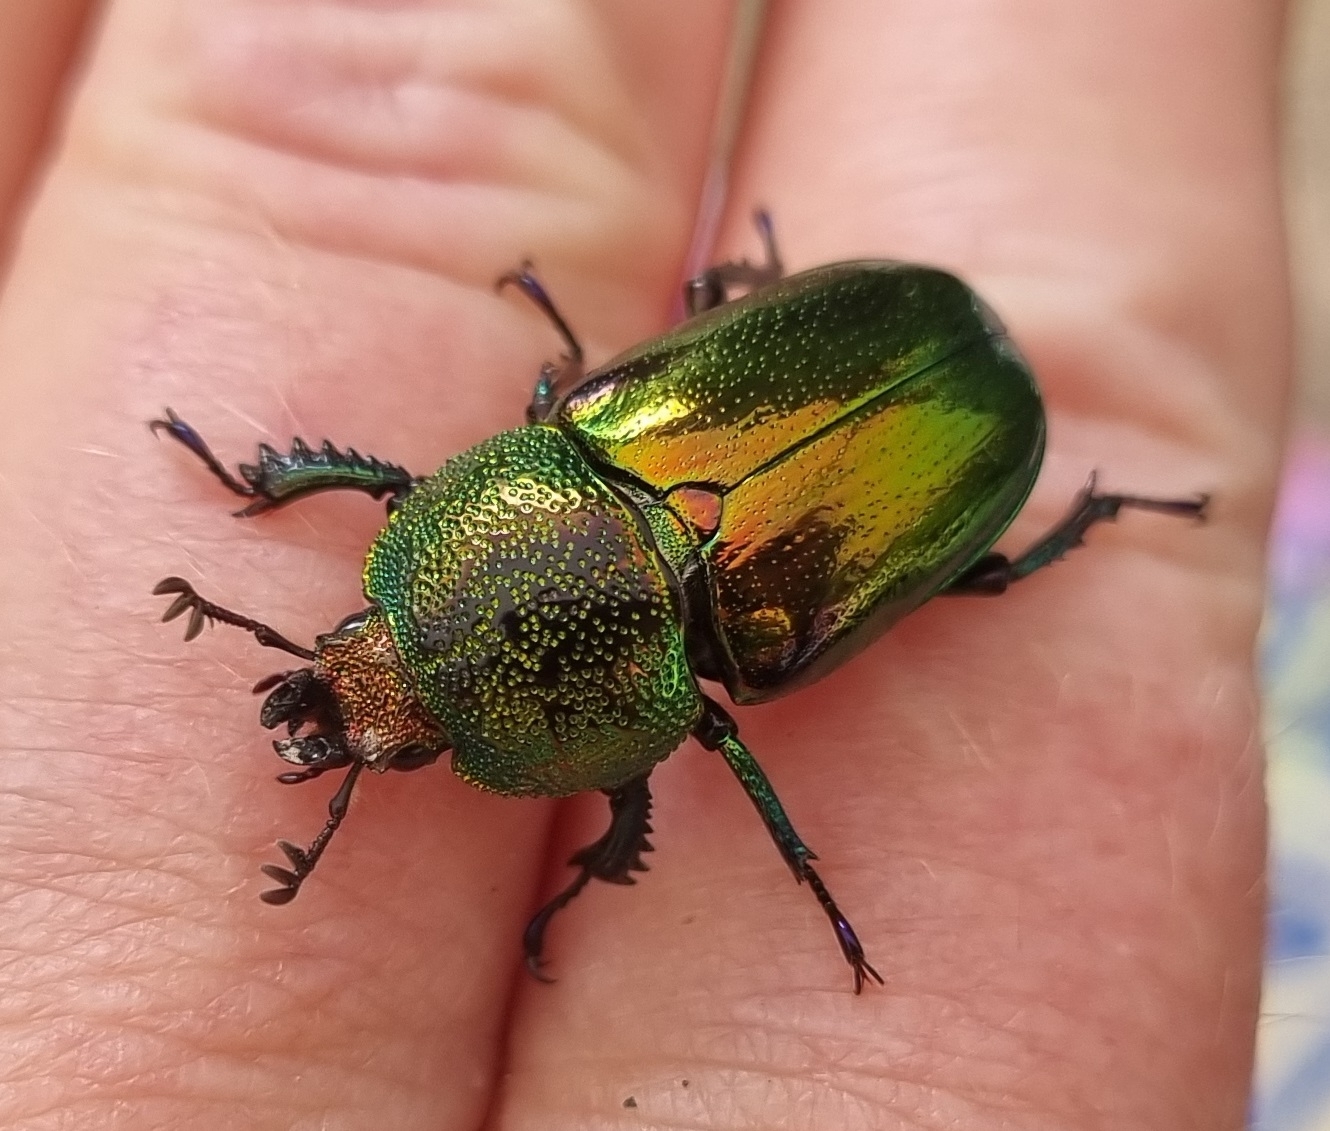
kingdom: Animalia
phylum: Arthropoda
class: Insecta
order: Coleoptera
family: Lucanidae
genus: Lamprima
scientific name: Lamprima aurata
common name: Golden stag beetle
